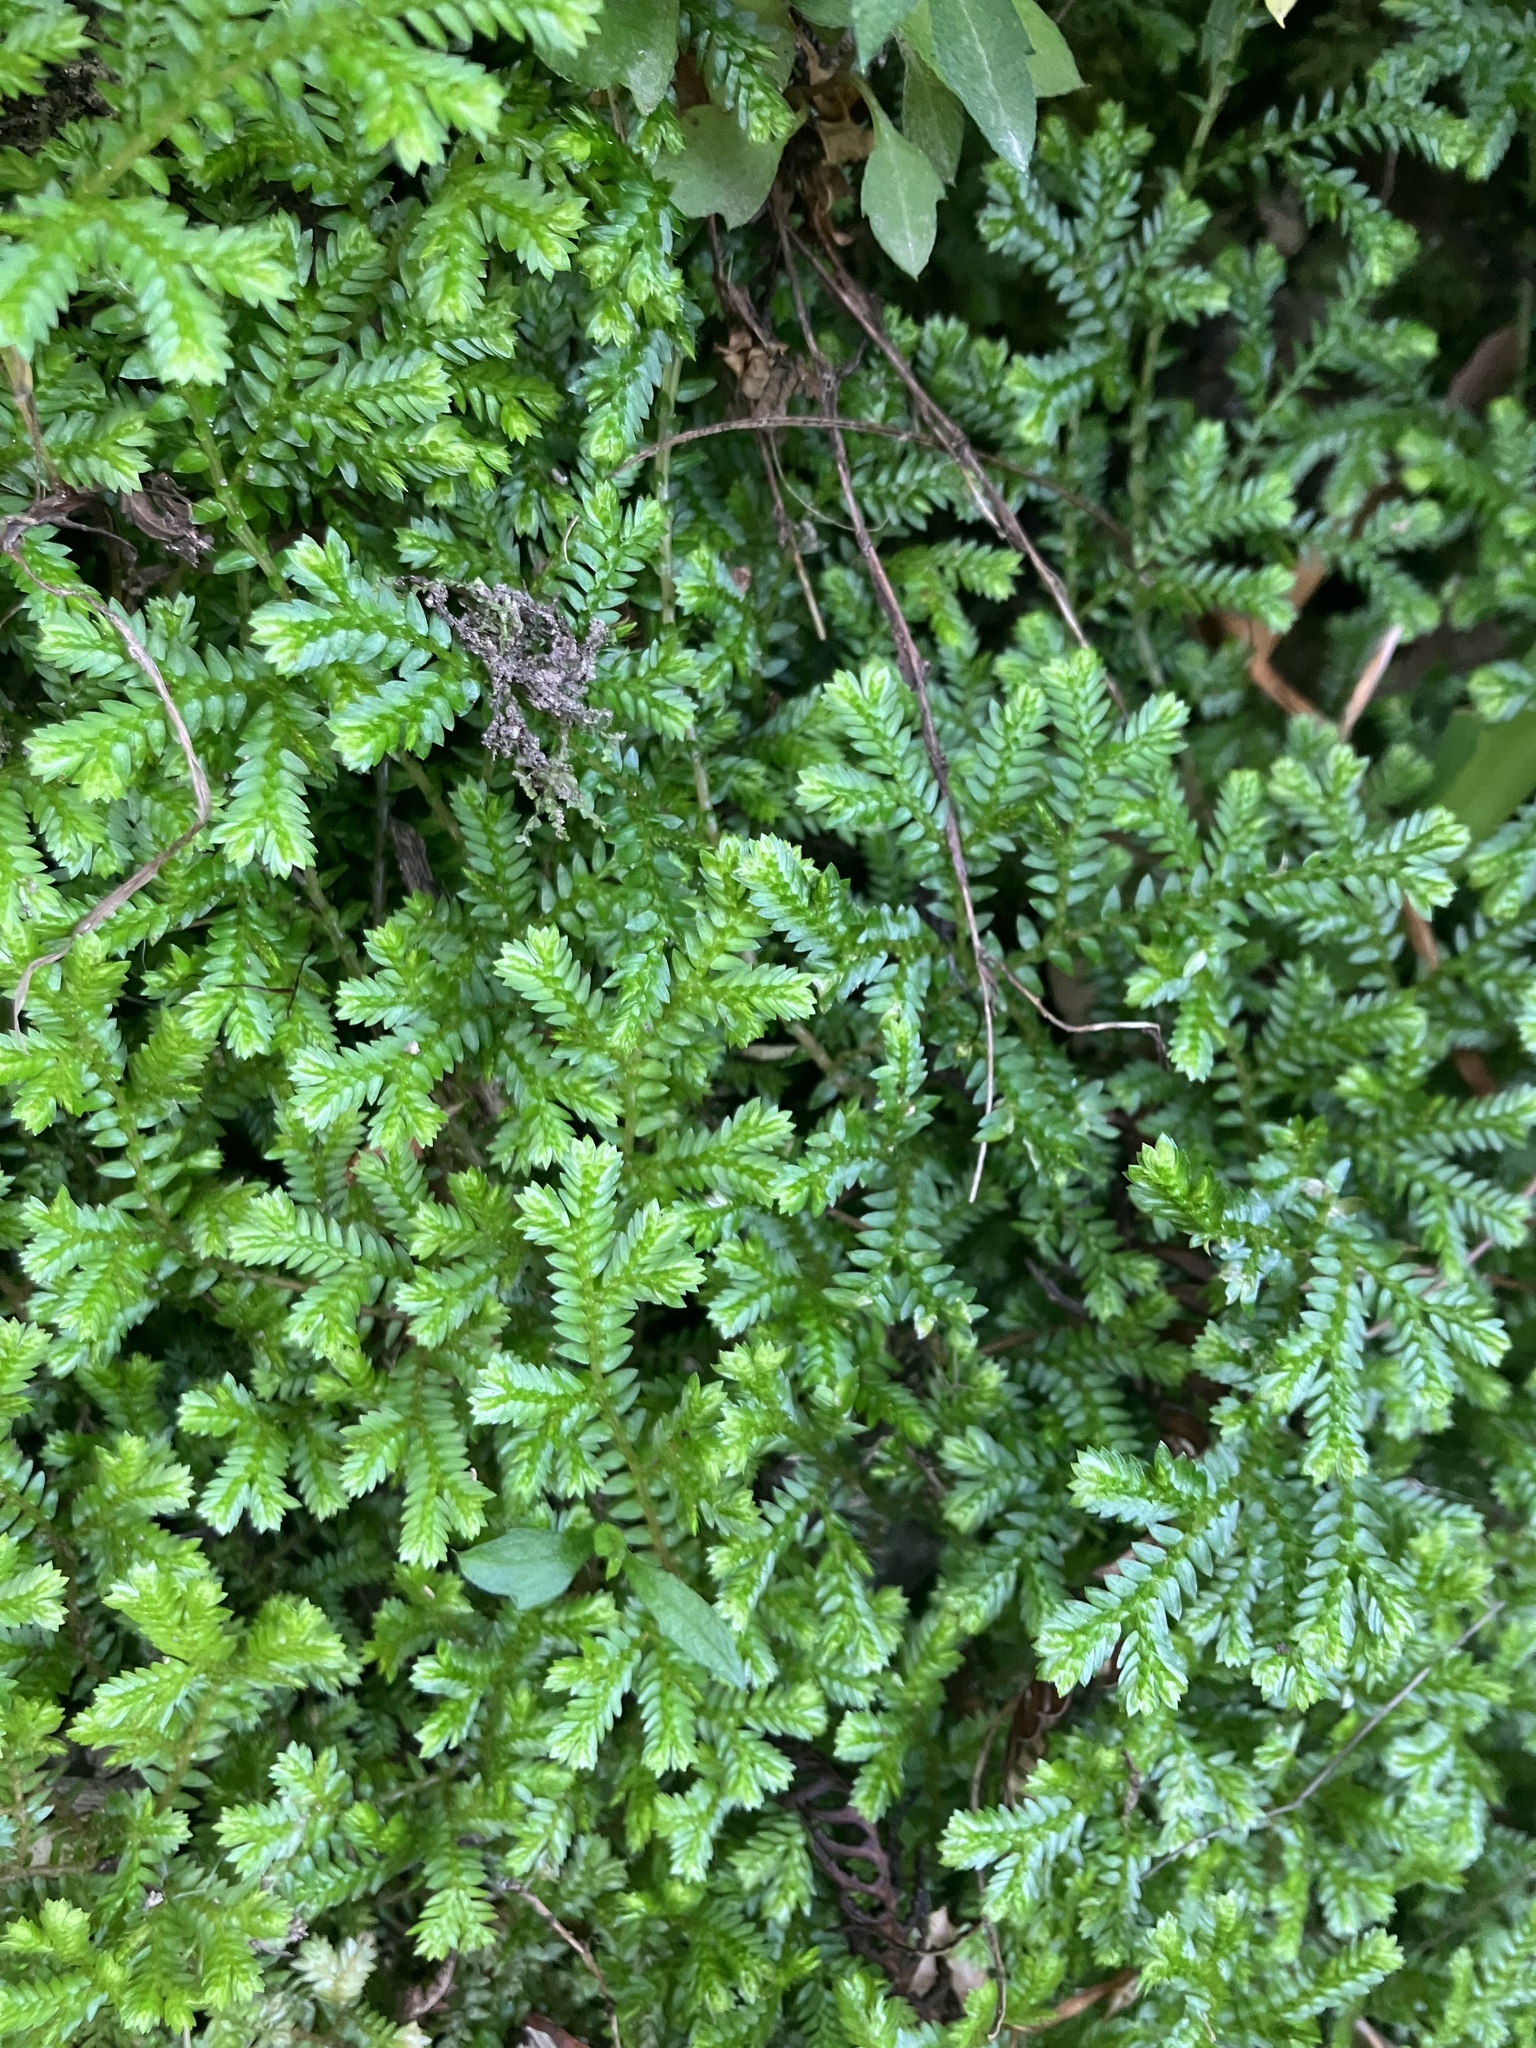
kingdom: Plantae
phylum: Tracheophyta
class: Lycopodiopsida
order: Selaginellales
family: Selaginellaceae
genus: Selaginella
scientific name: Selaginella kraussiana
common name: Krauss' spikemoss
